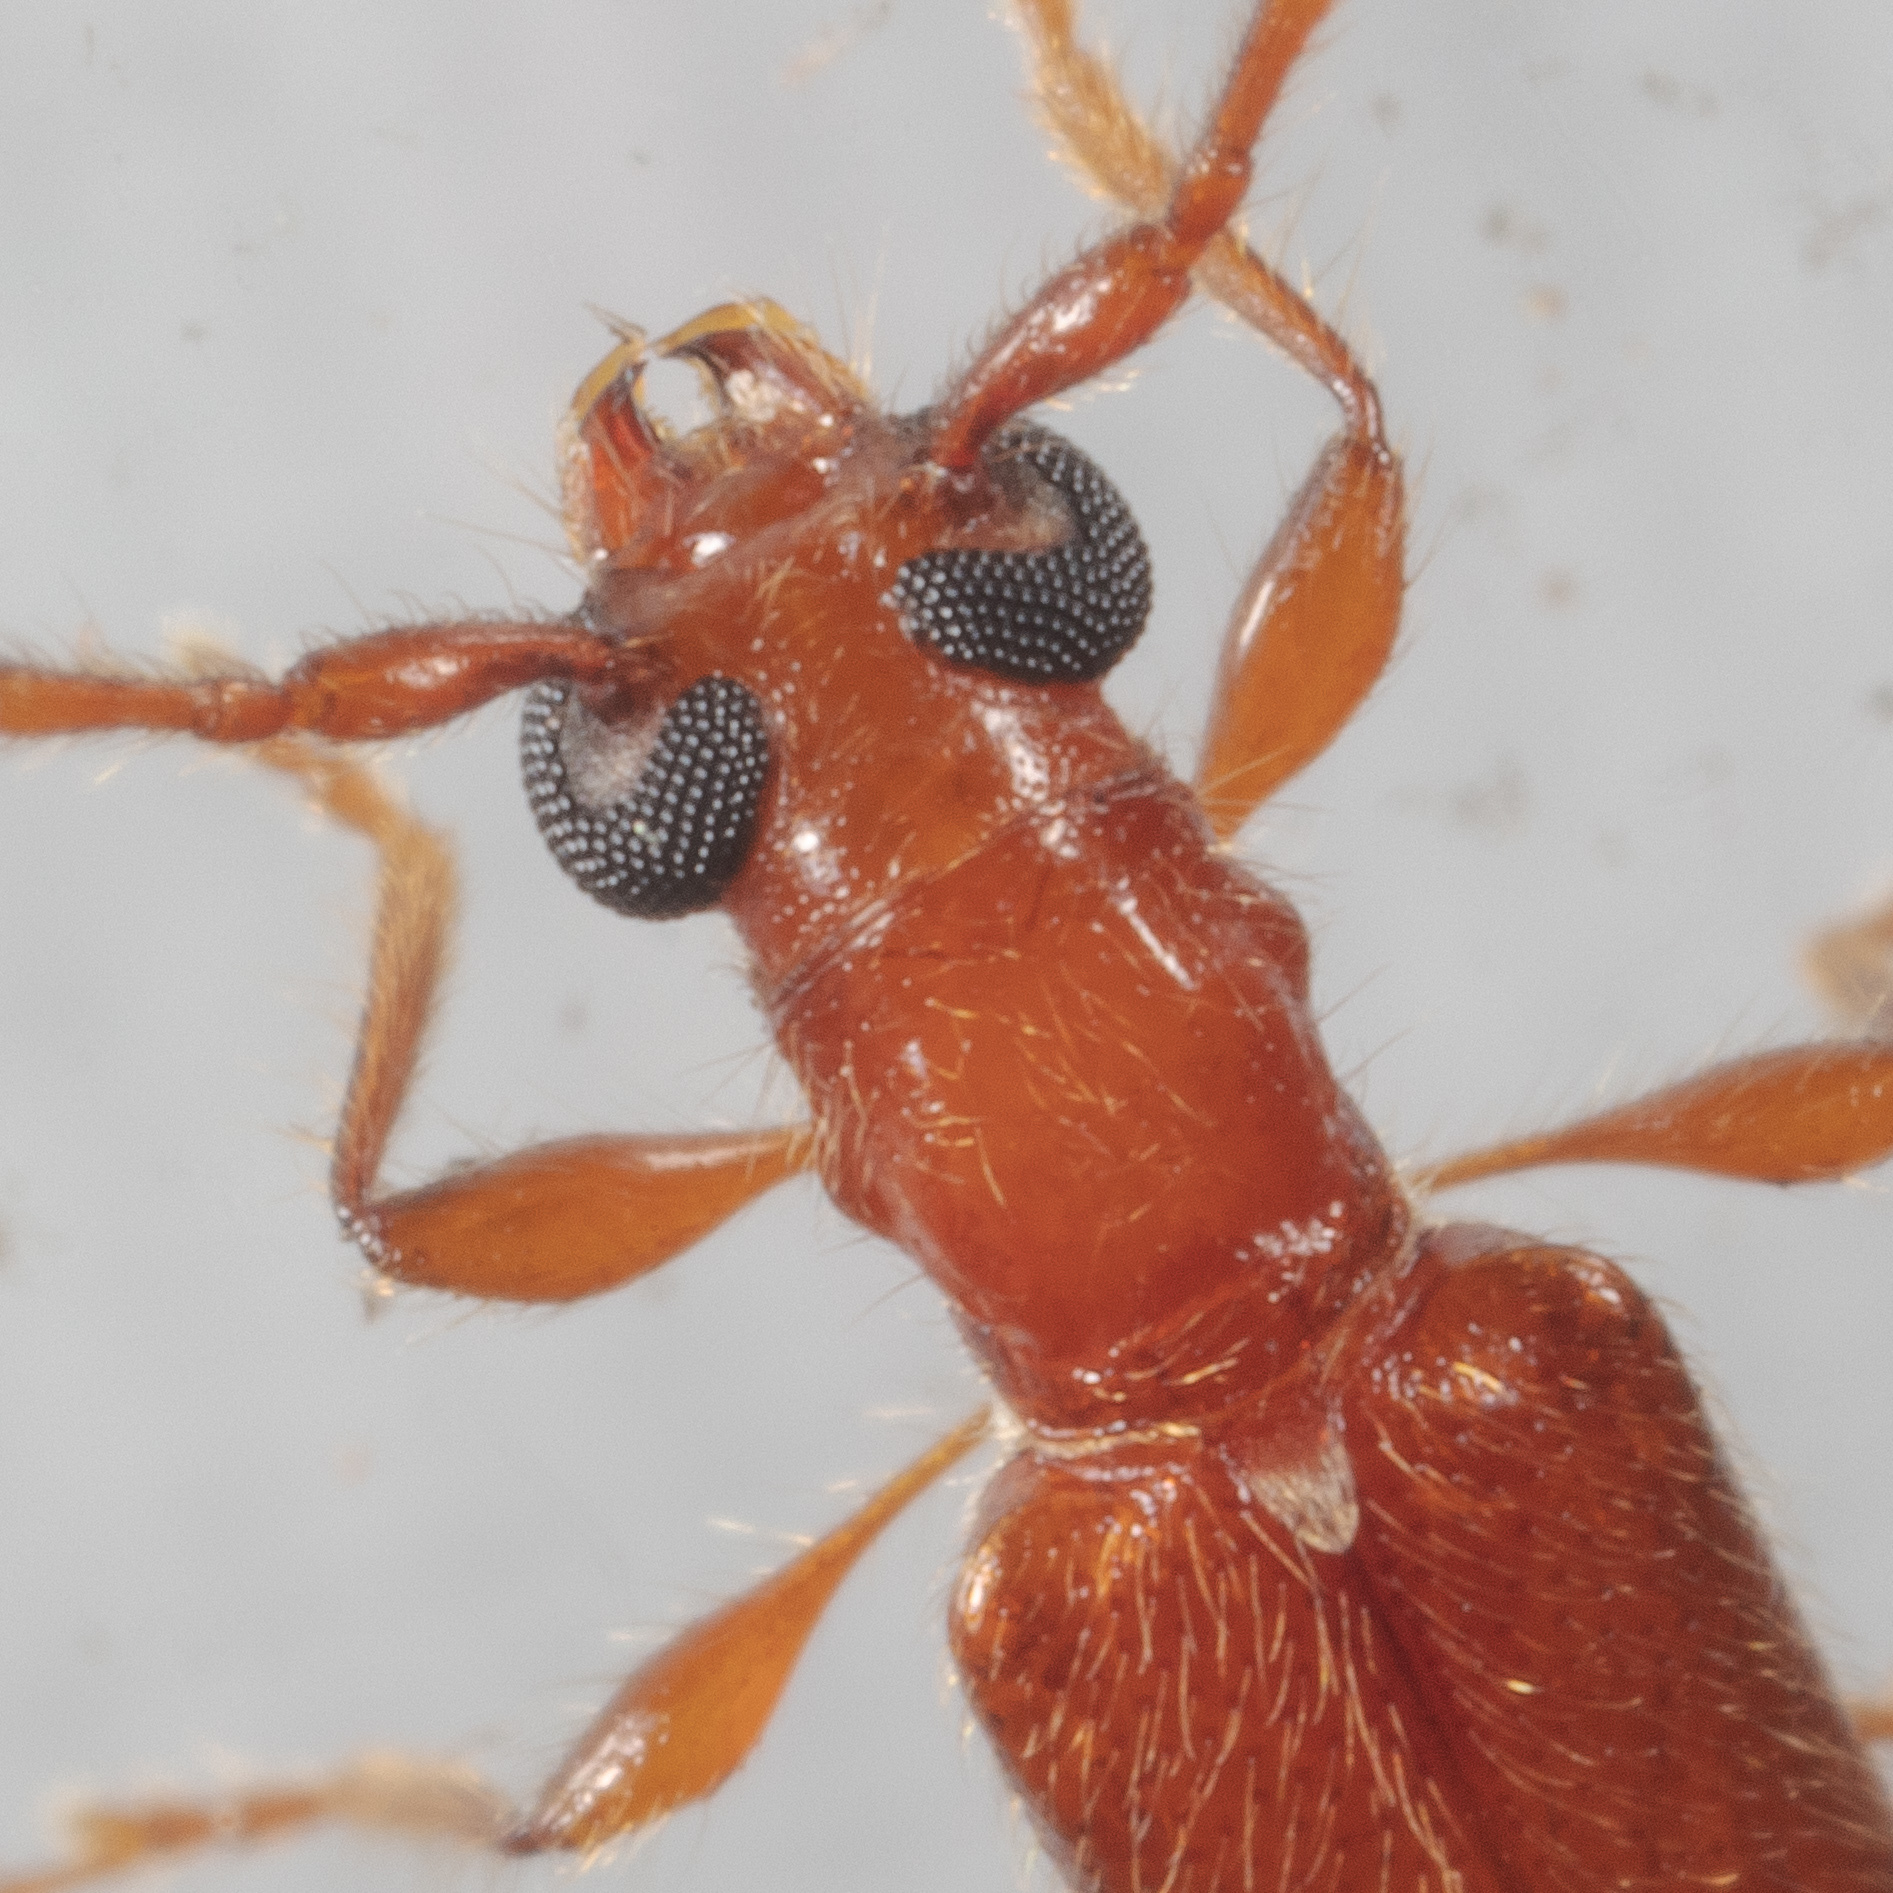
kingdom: Animalia
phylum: Arthropoda
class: Insecta
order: Coleoptera
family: Cerambycidae
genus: Obrium
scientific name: Obrium rufulum
